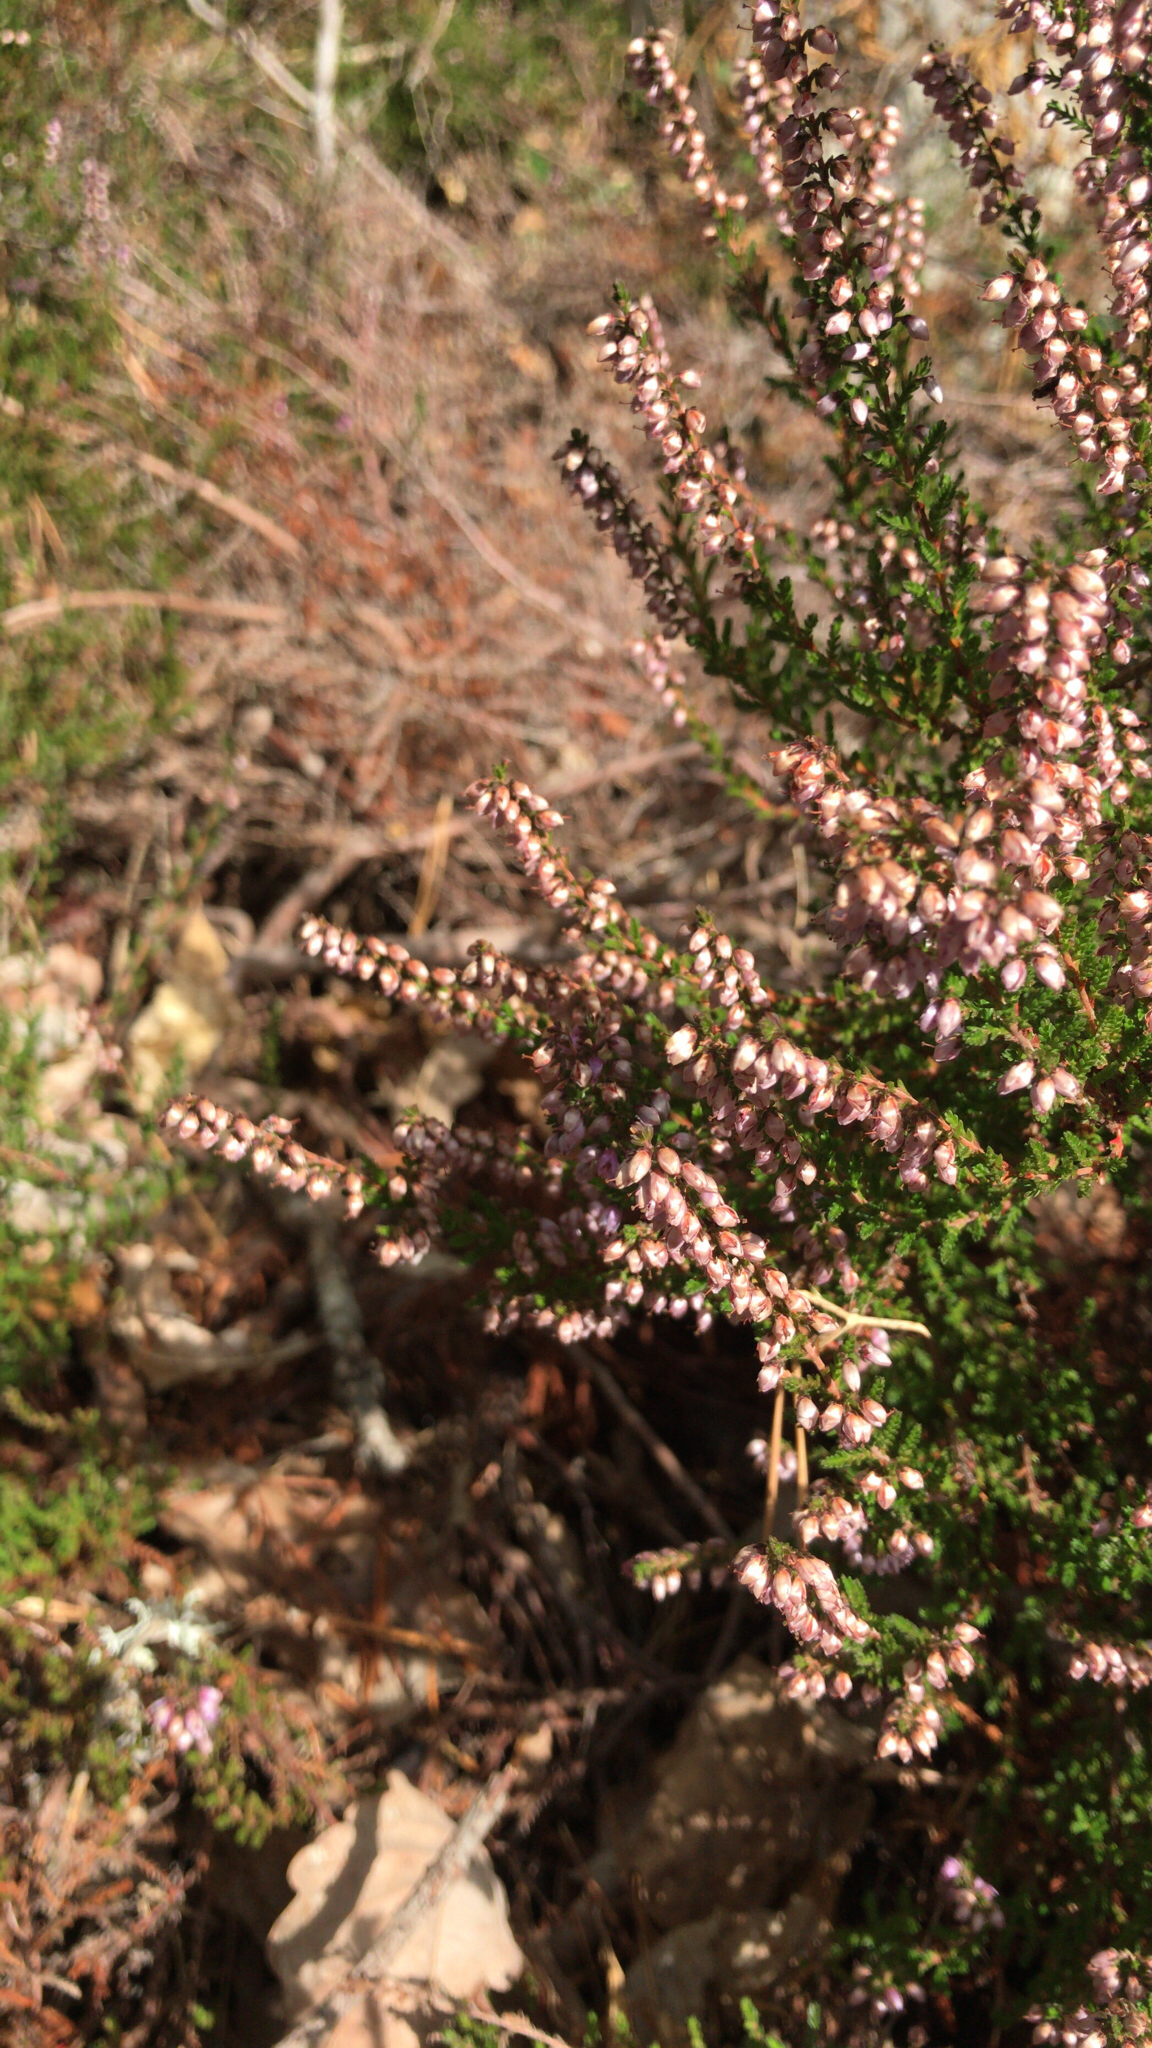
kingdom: Plantae
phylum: Tracheophyta
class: Magnoliopsida
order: Ericales
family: Ericaceae
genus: Calluna
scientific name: Calluna vulgaris
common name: Heather
